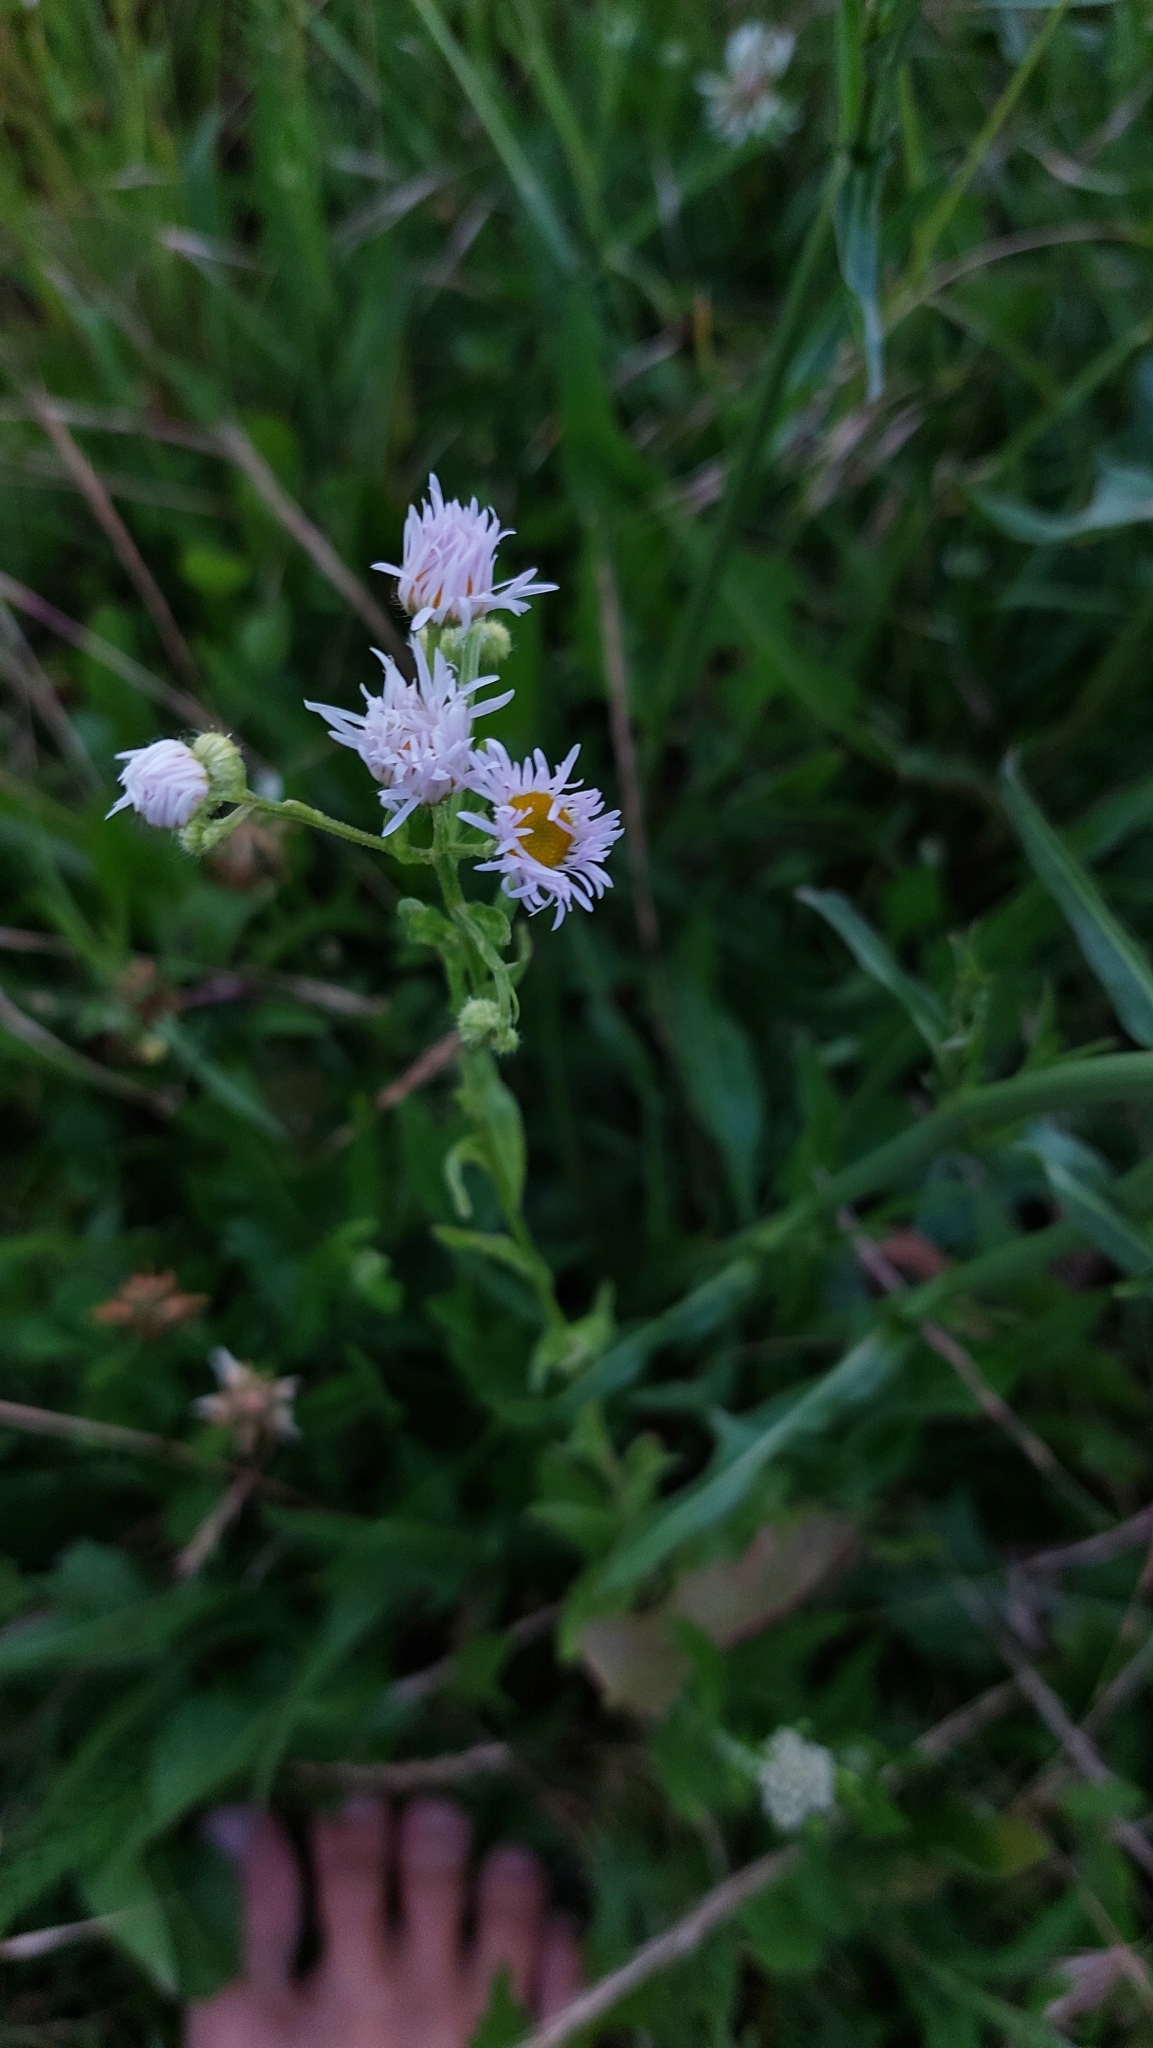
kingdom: Plantae
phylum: Tracheophyta
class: Magnoliopsida
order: Asterales
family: Asteraceae
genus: Erigeron
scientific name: Erigeron annuus
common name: Tall fleabane
